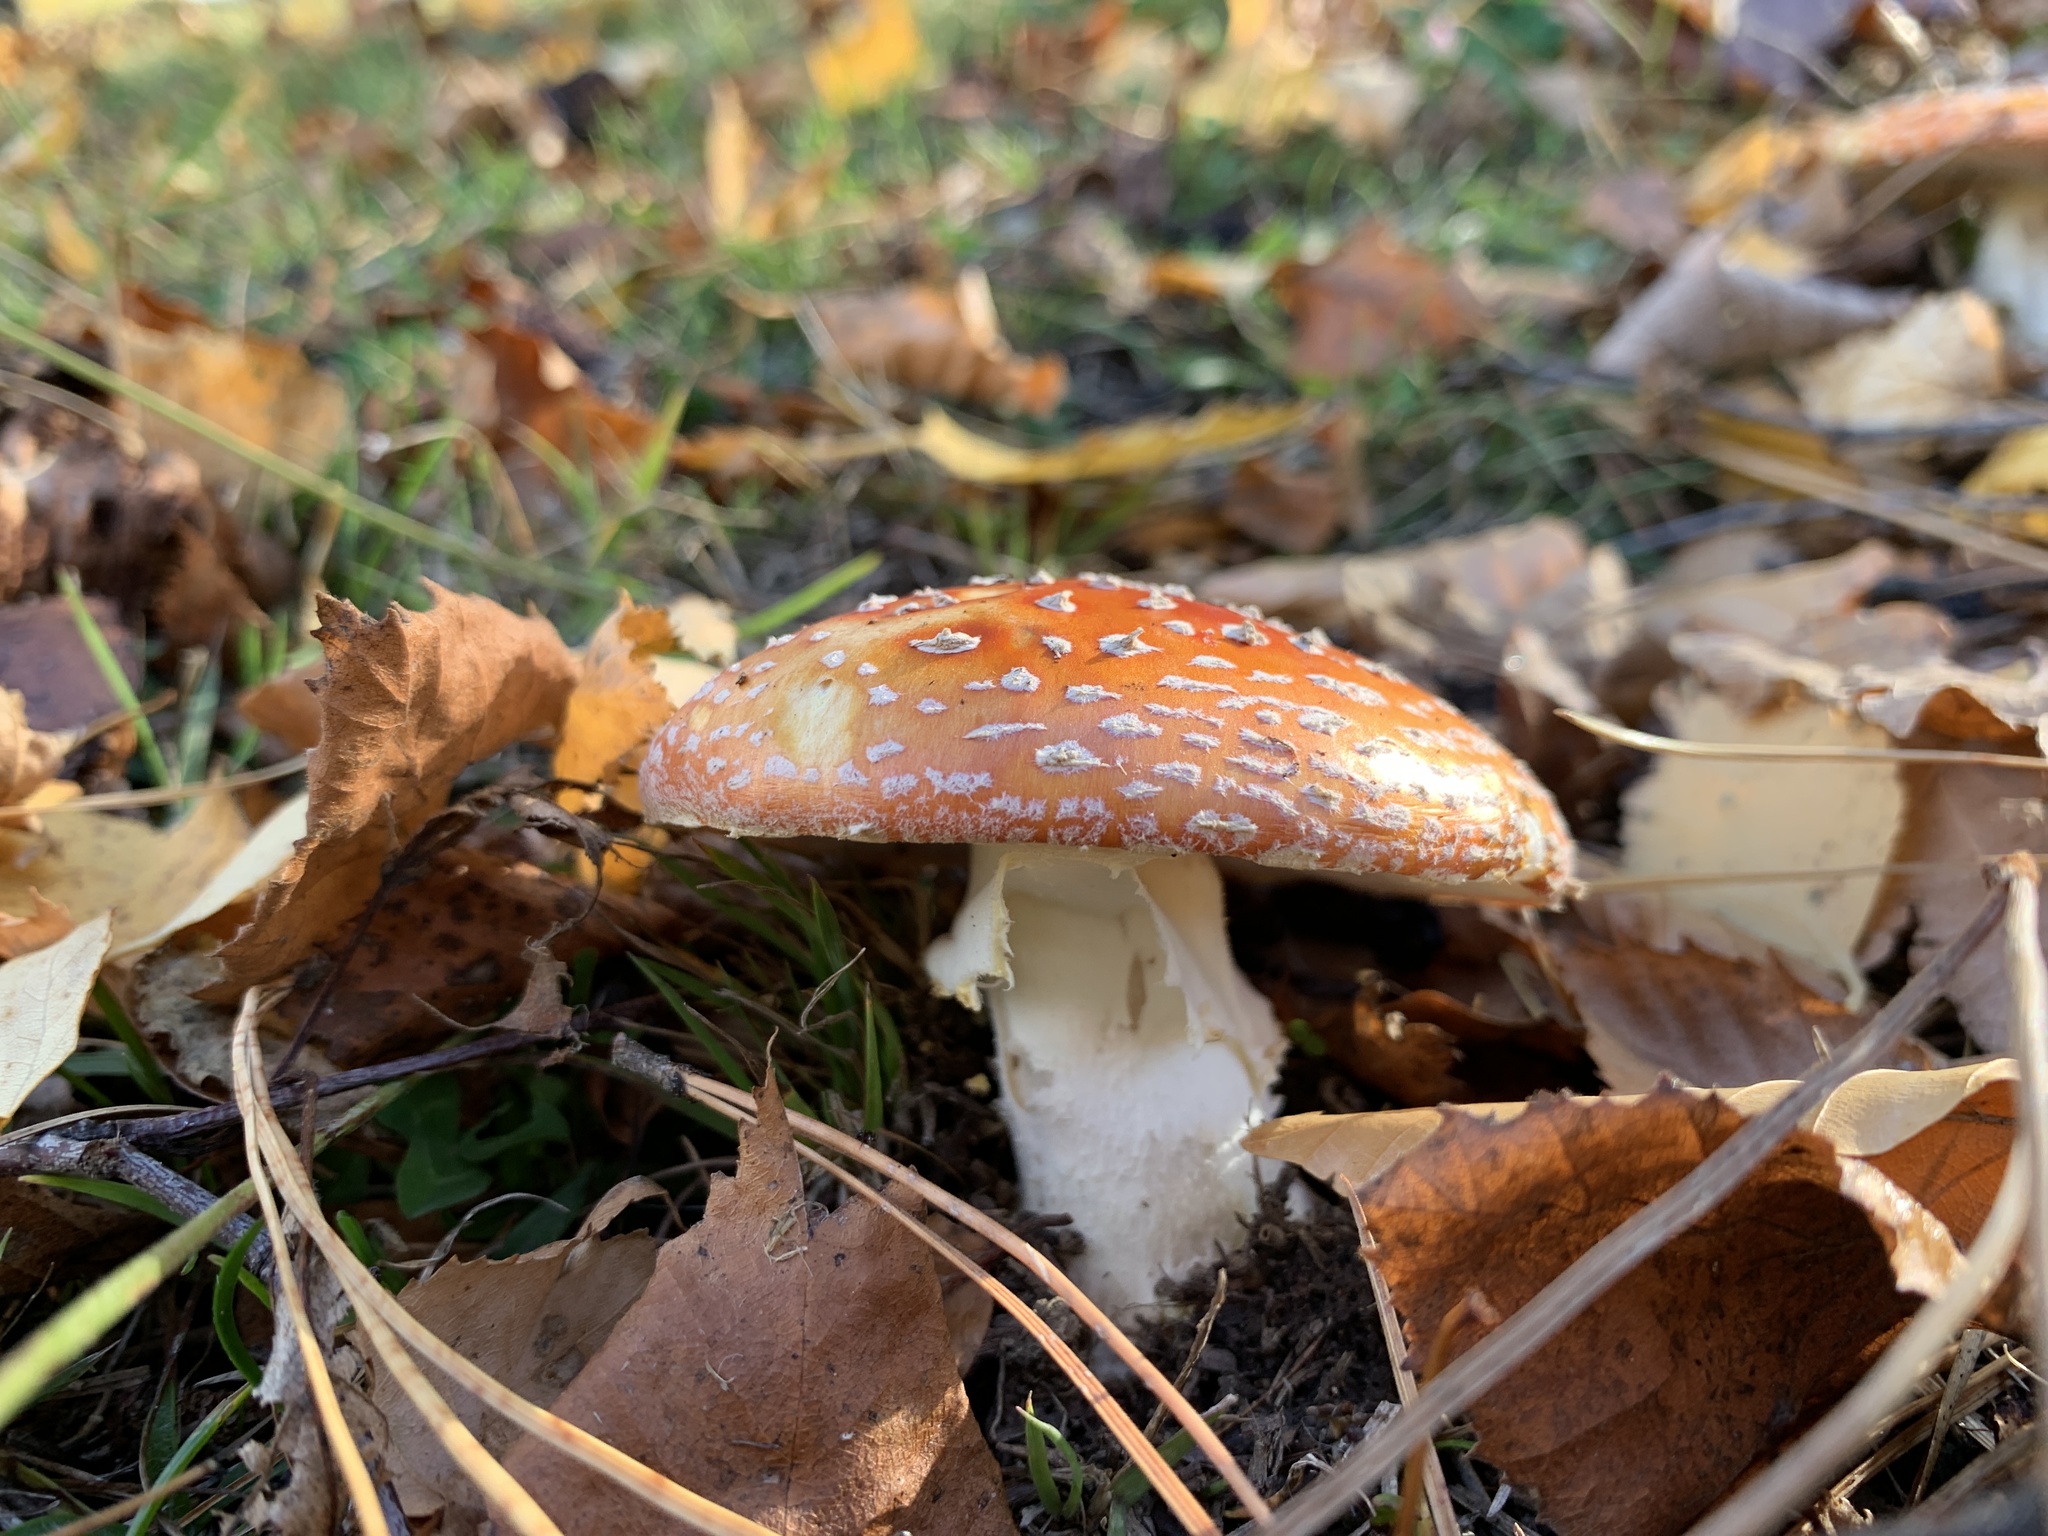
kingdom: Fungi
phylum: Basidiomycota
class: Agaricomycetes
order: Agaricales
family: Amanitaceae
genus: Amanita
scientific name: Amanita muscaria
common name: Fly agaric
